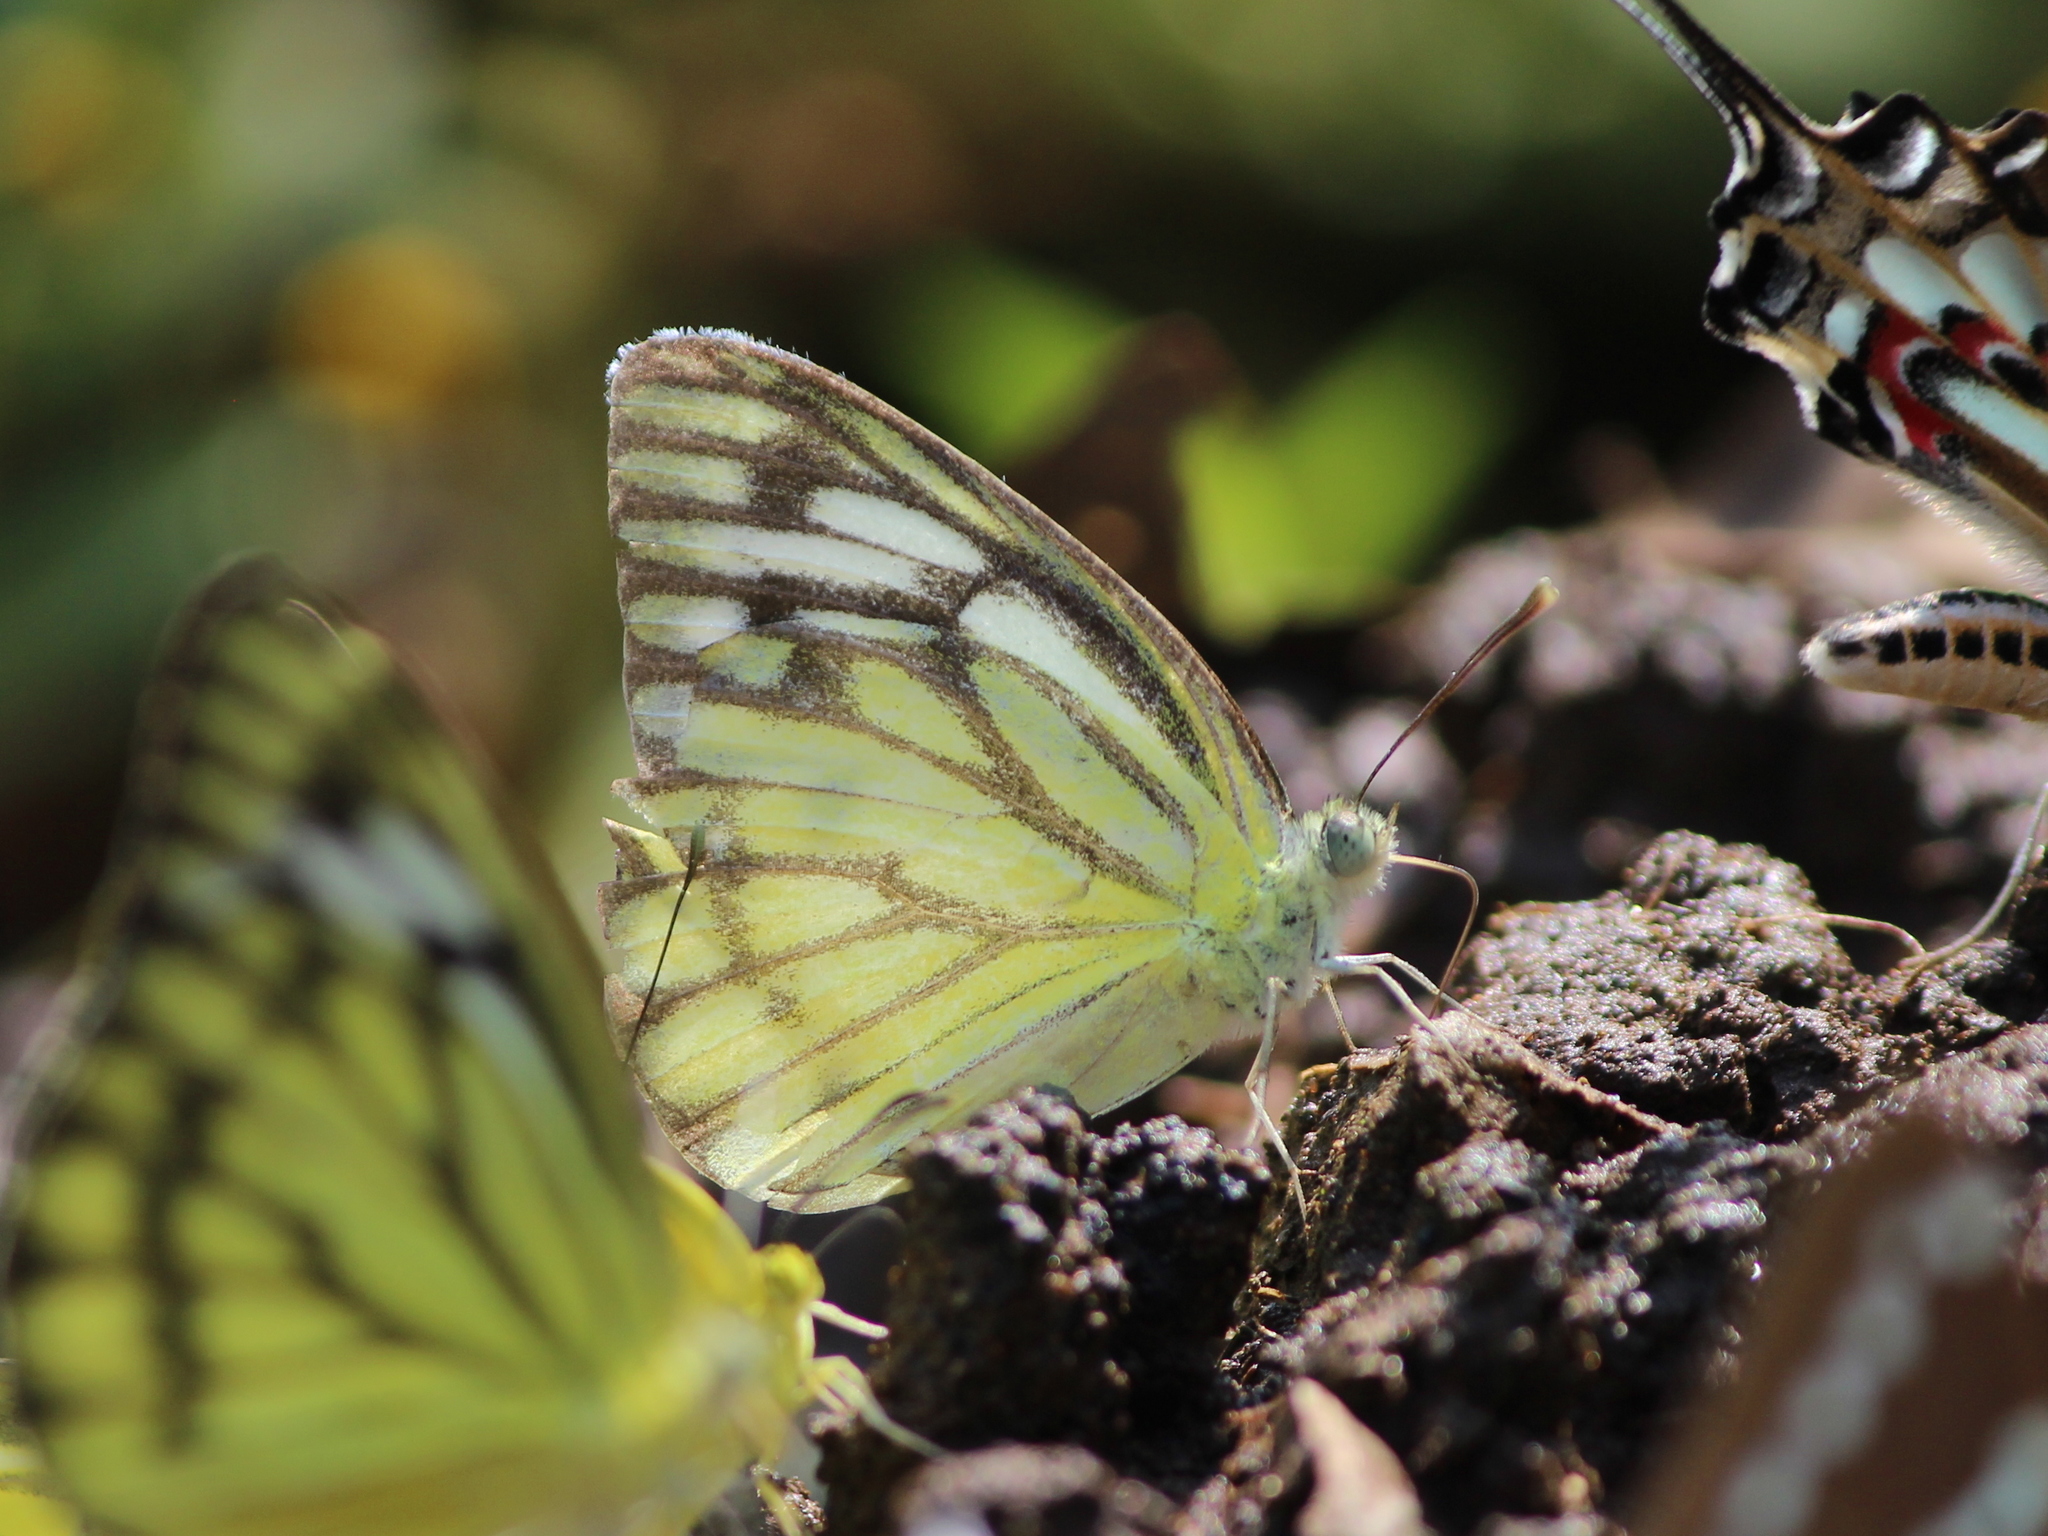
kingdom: Animalia
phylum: Arthropoda
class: Insecta
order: Lepidoptera
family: Pieridae
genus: Cepora
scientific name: Cepora nerissa
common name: Common gull
